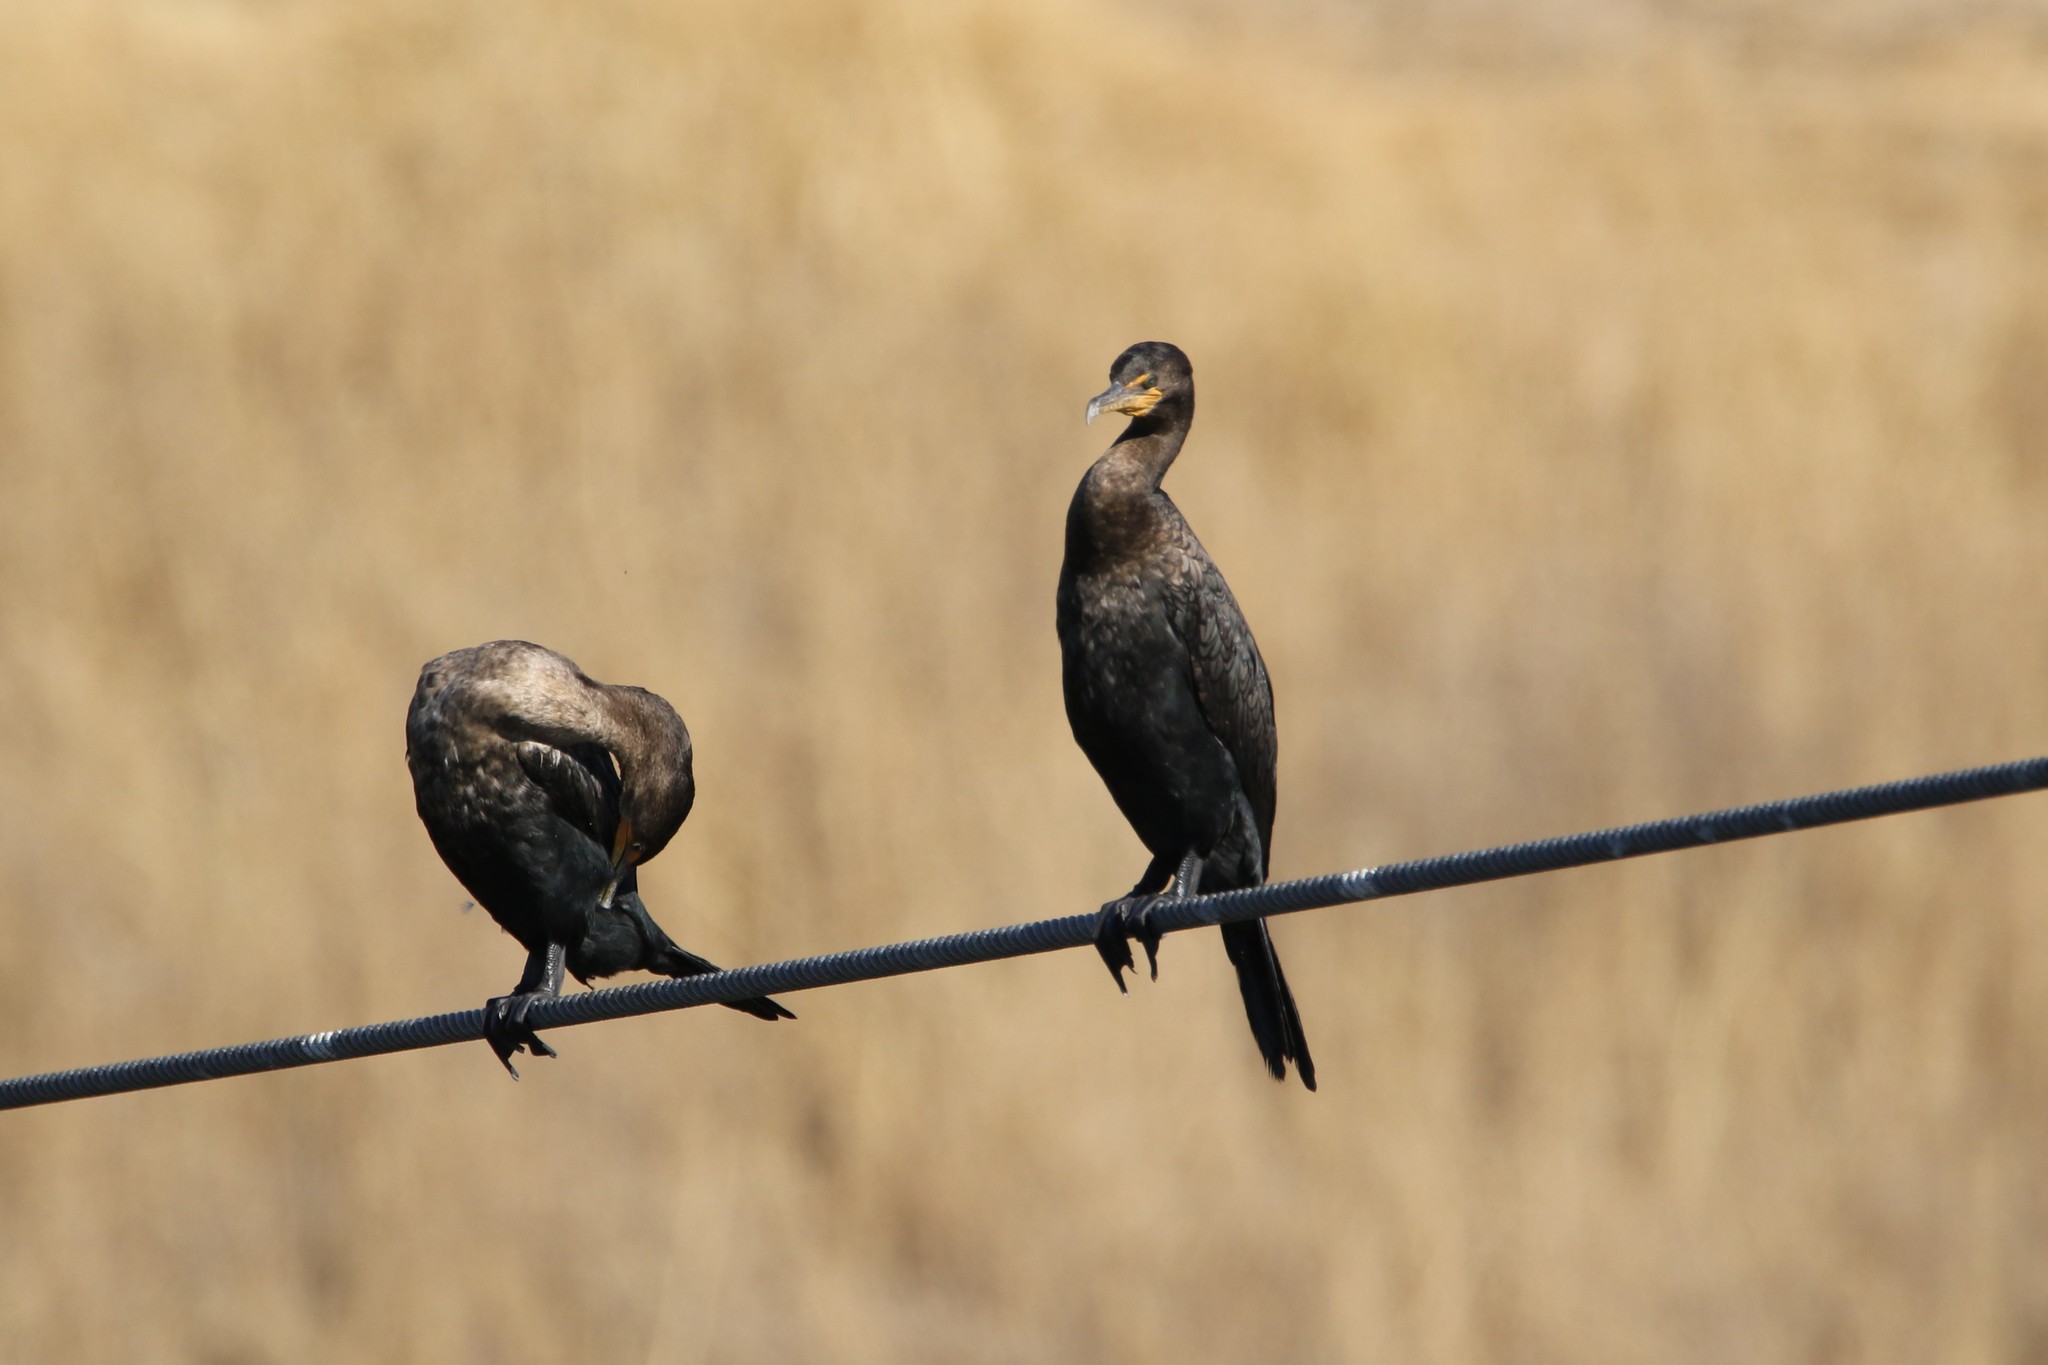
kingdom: Animalia
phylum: Chordata
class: Aves
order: Suliformes
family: Phalacrocoracidae
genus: Phalacrocorax
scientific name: Phalacrocorax auritus
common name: Double-crested cormorant
